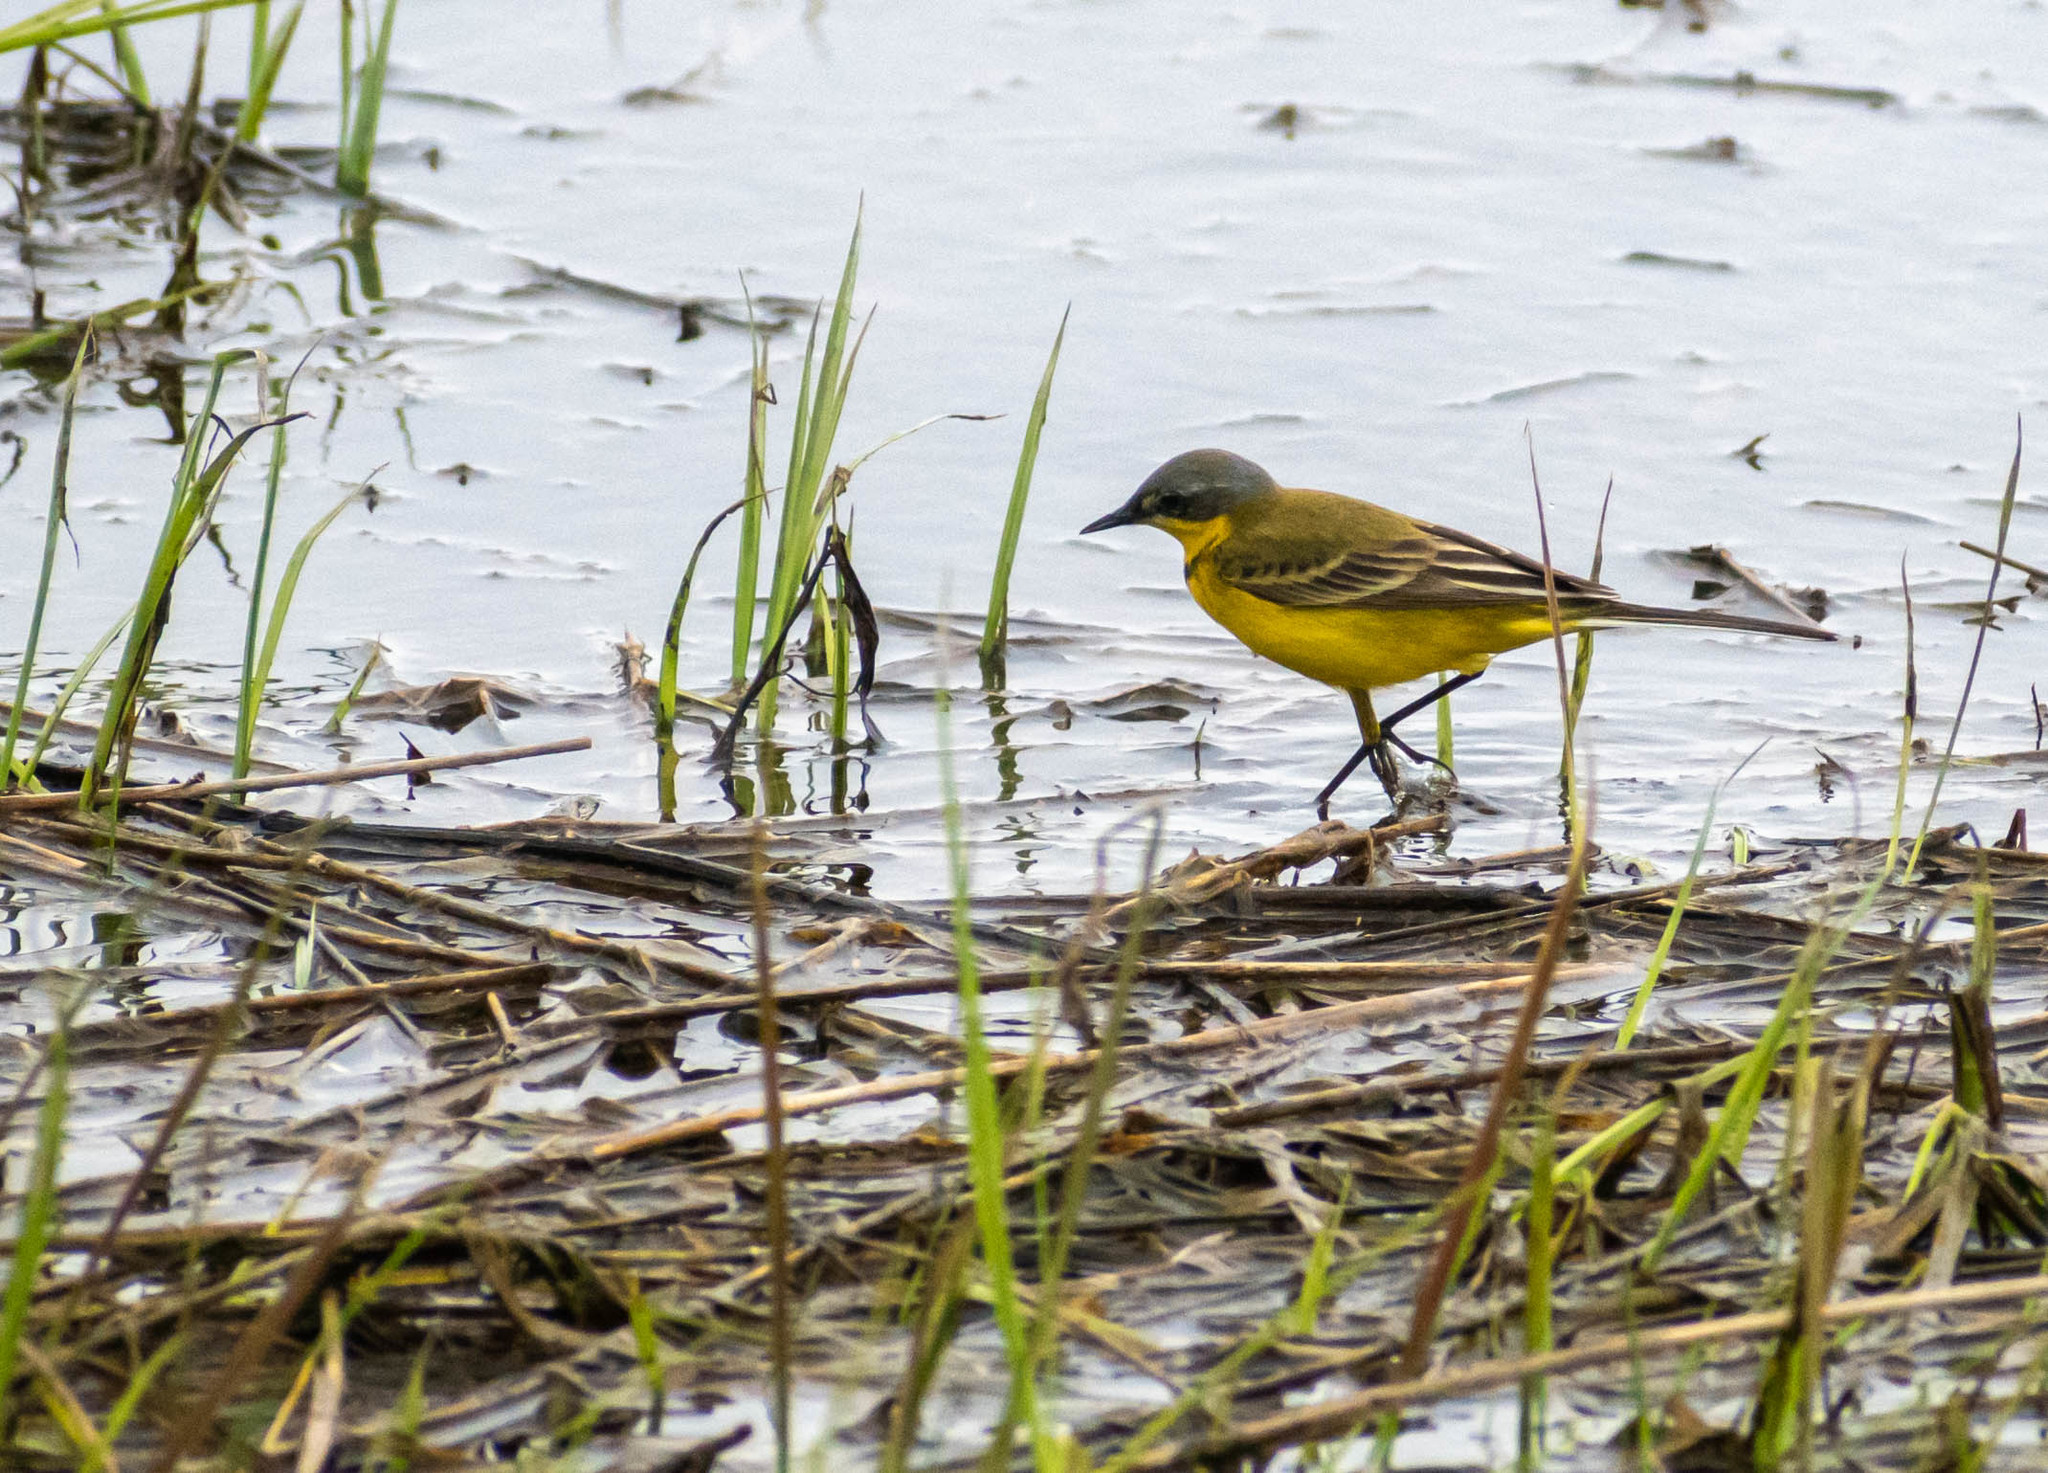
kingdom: Animalia
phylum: Chordata
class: Aves
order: Passeriformes
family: Motacillidae
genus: Motacilla
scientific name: Motacilla flava
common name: Western yellow wagtail
